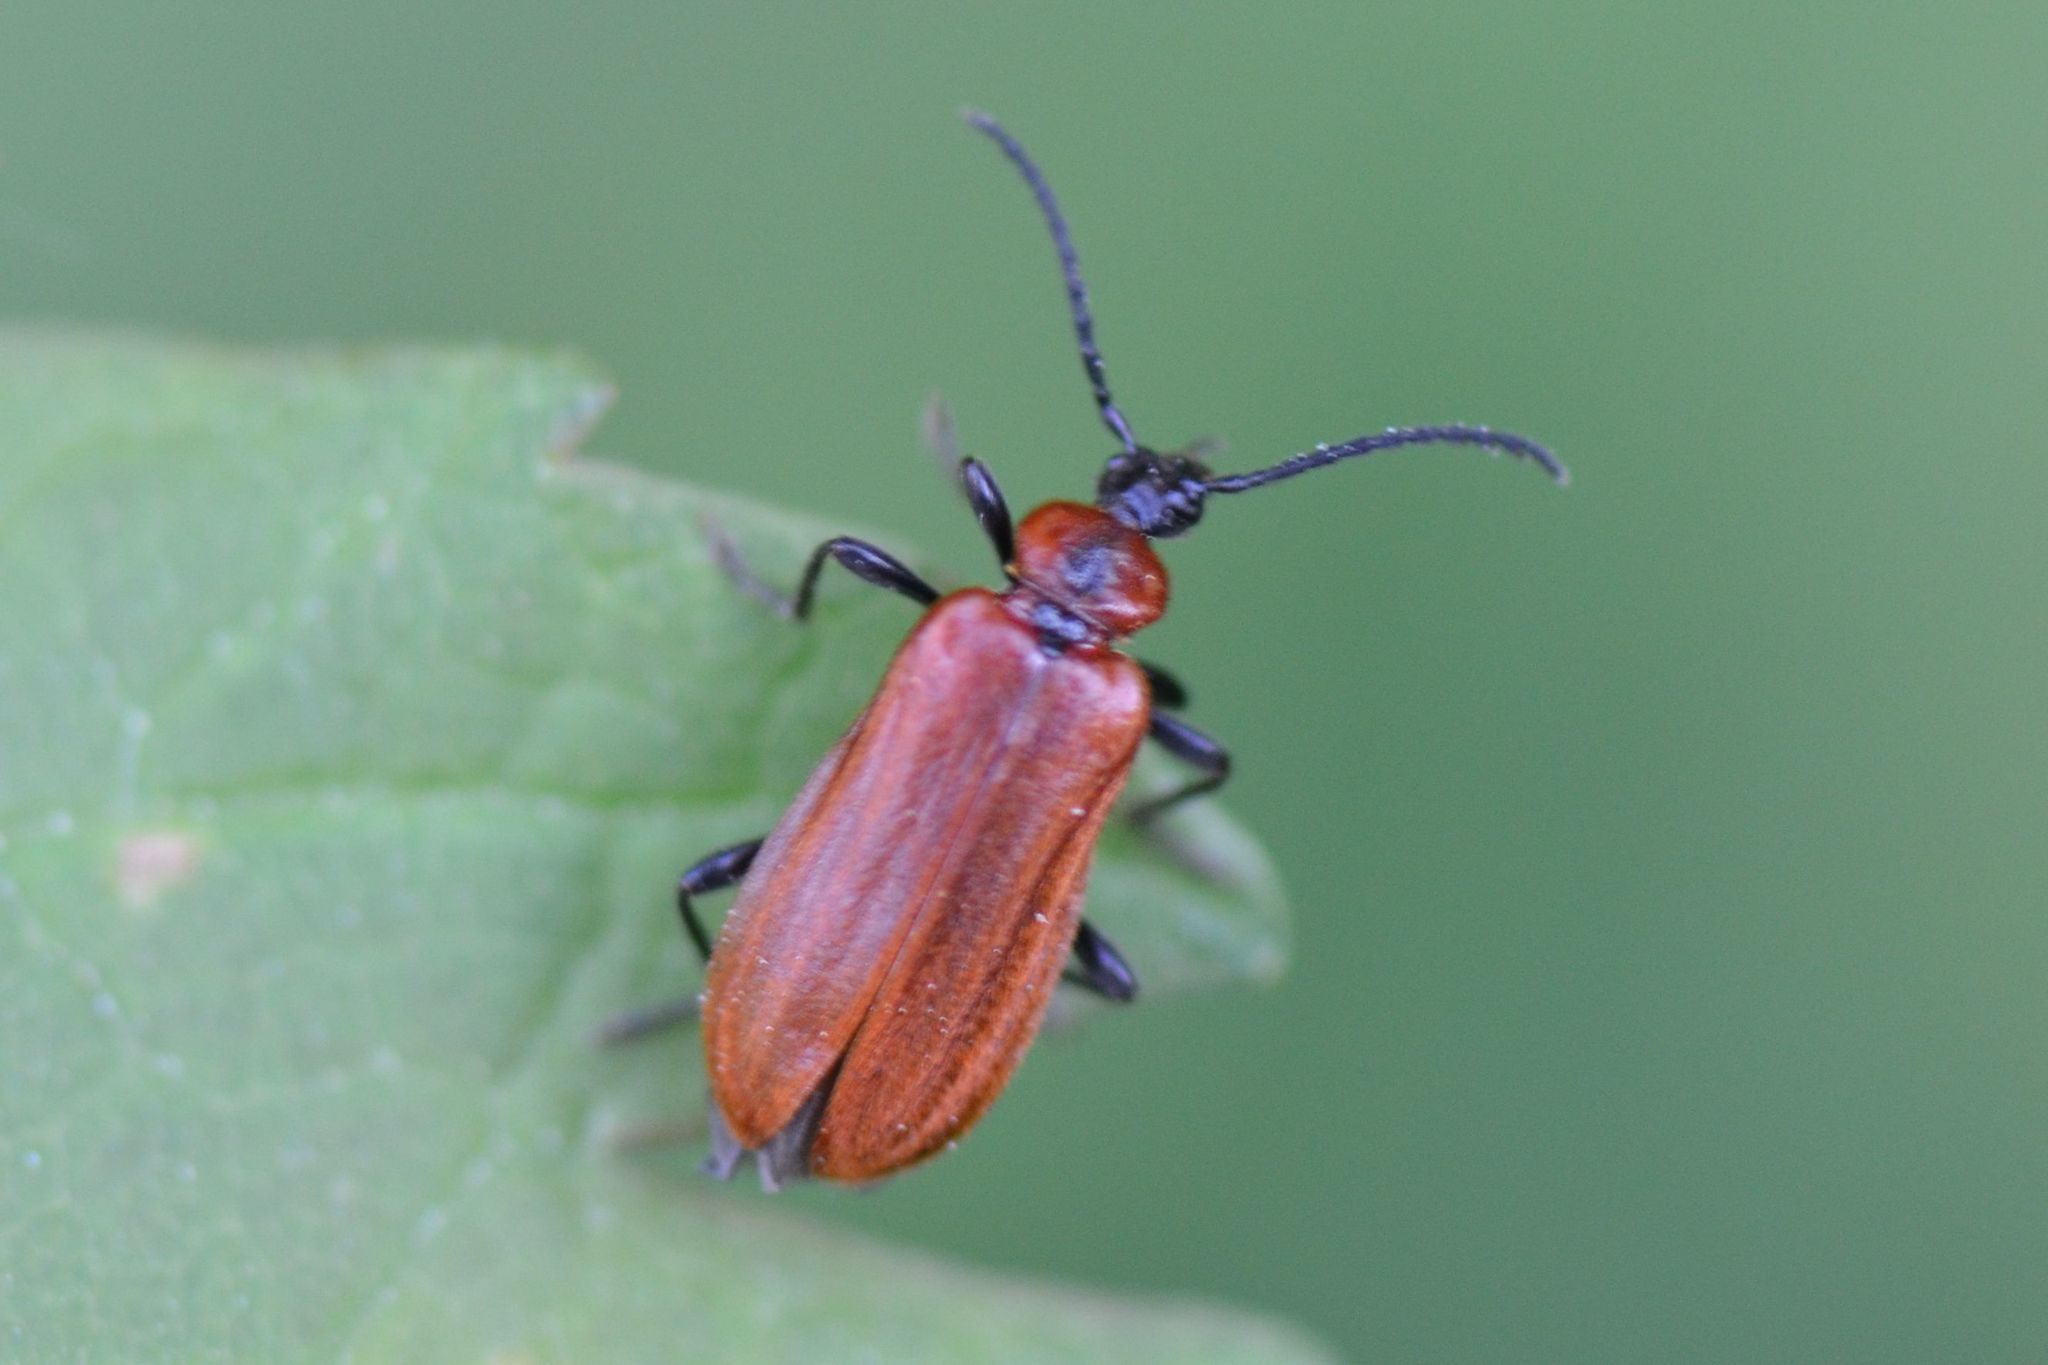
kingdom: Animalia
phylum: Arthropoda
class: Insecta
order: Coleoptera
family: Pyrochroidae
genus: Schizotus
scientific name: Schizotus pectinicornis
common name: Scarce cardinal beetle
